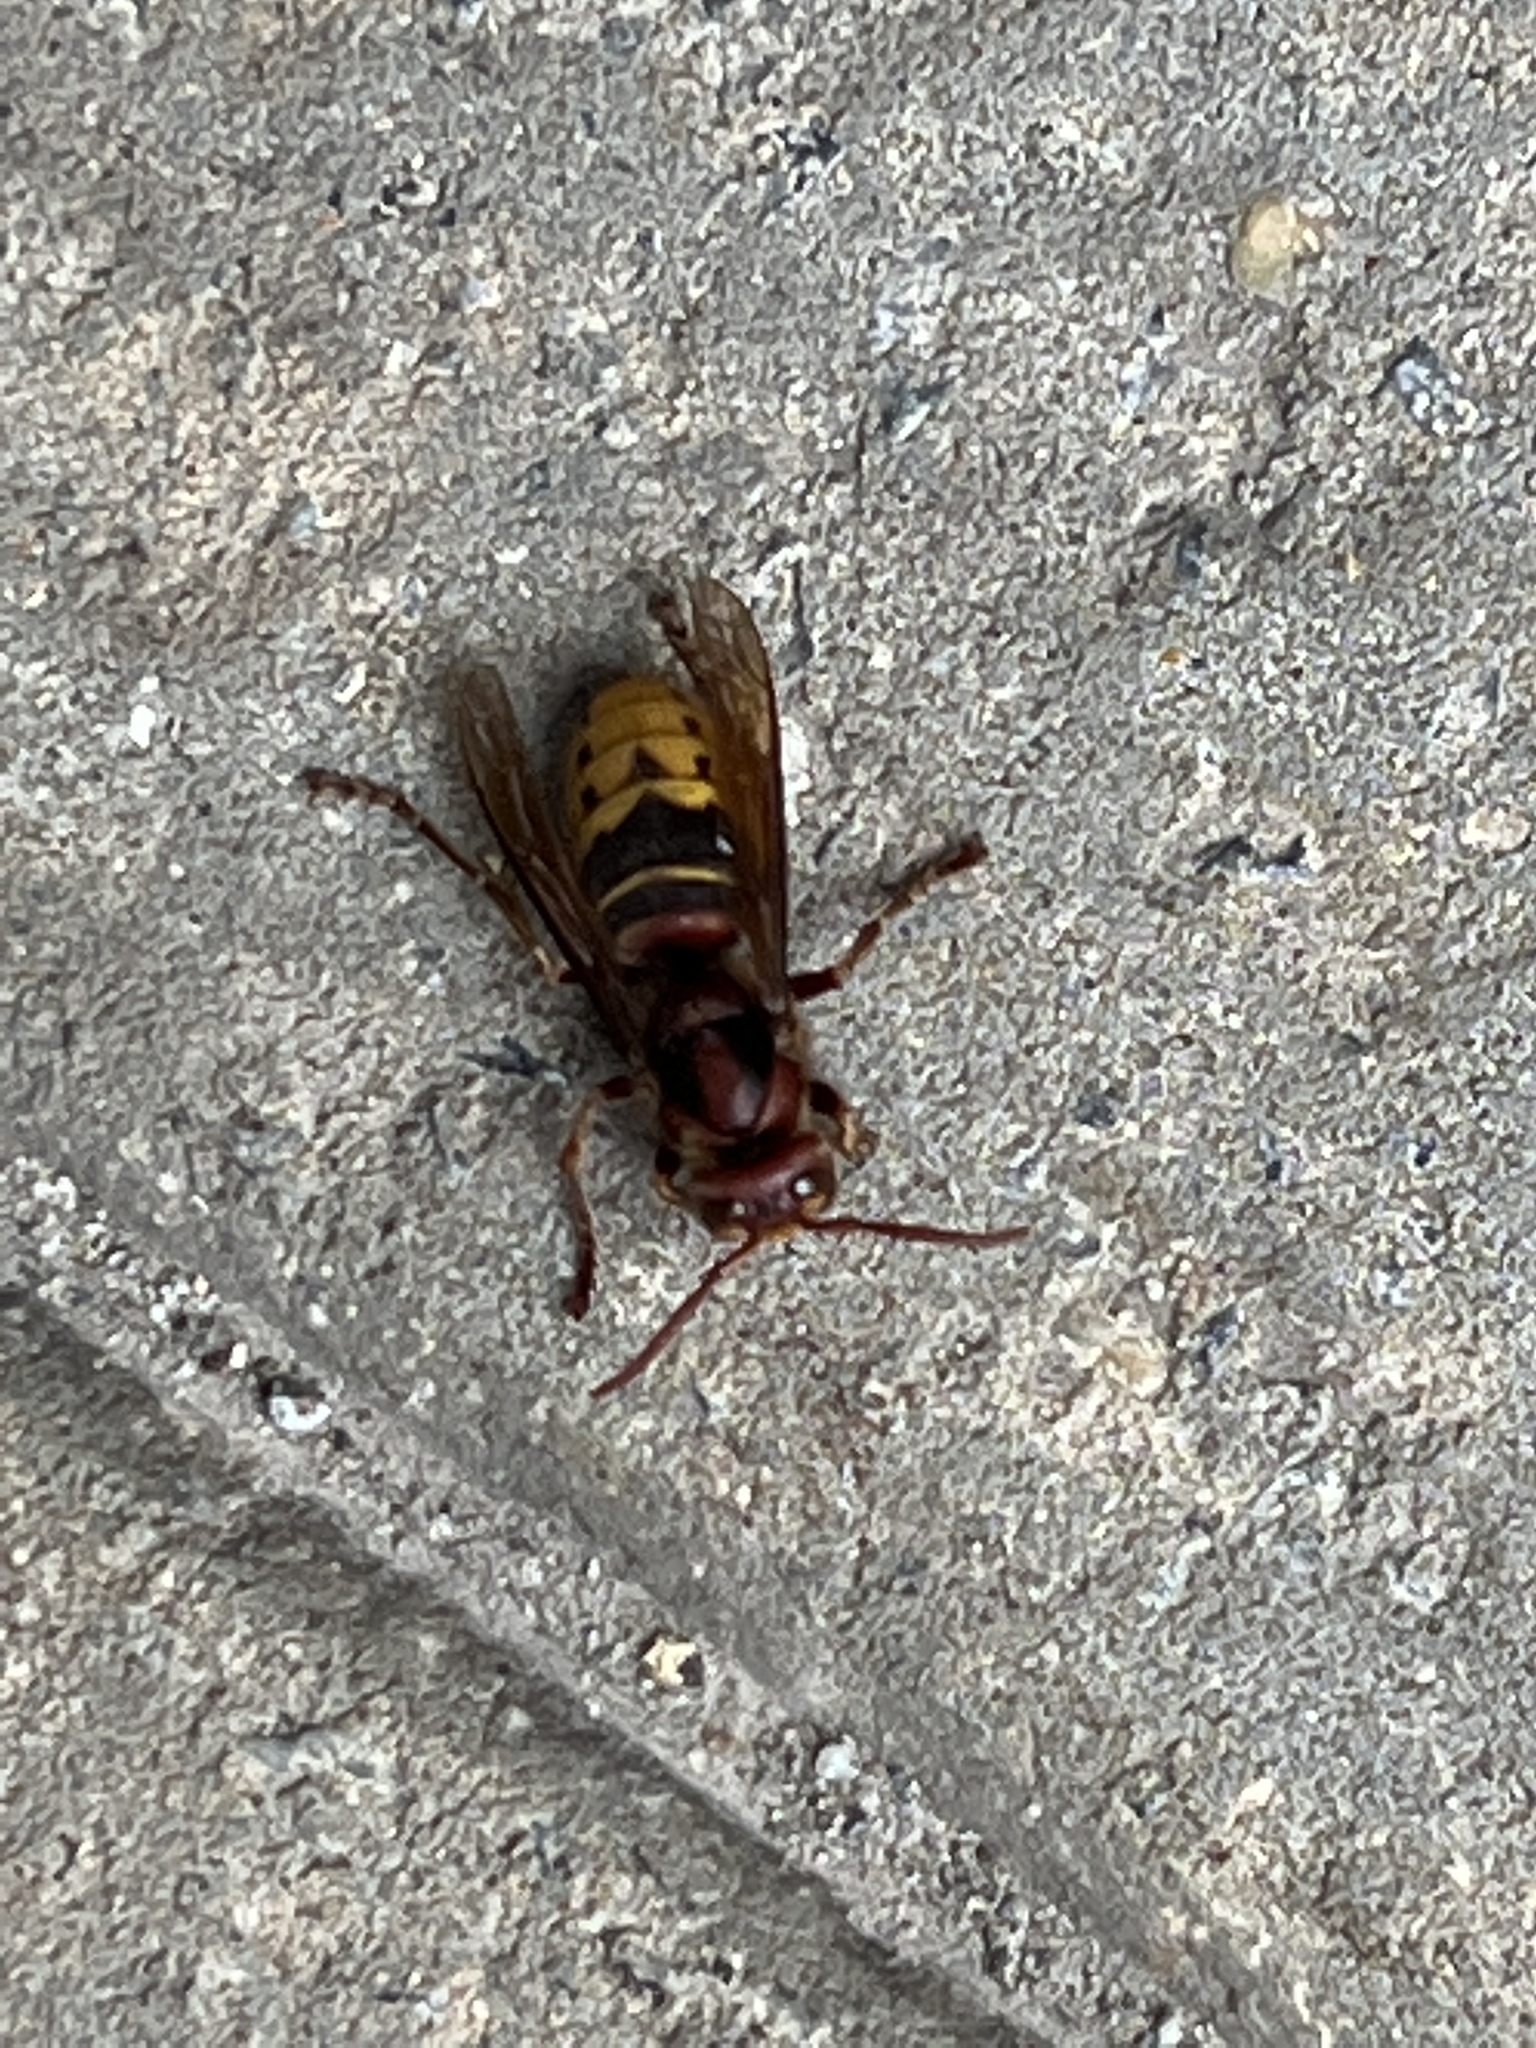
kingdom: Animalia
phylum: Arthropoda
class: Insecta
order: Hymenoptera
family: Vespidae
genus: Vespa
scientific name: Vespa crabro
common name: Hornet
